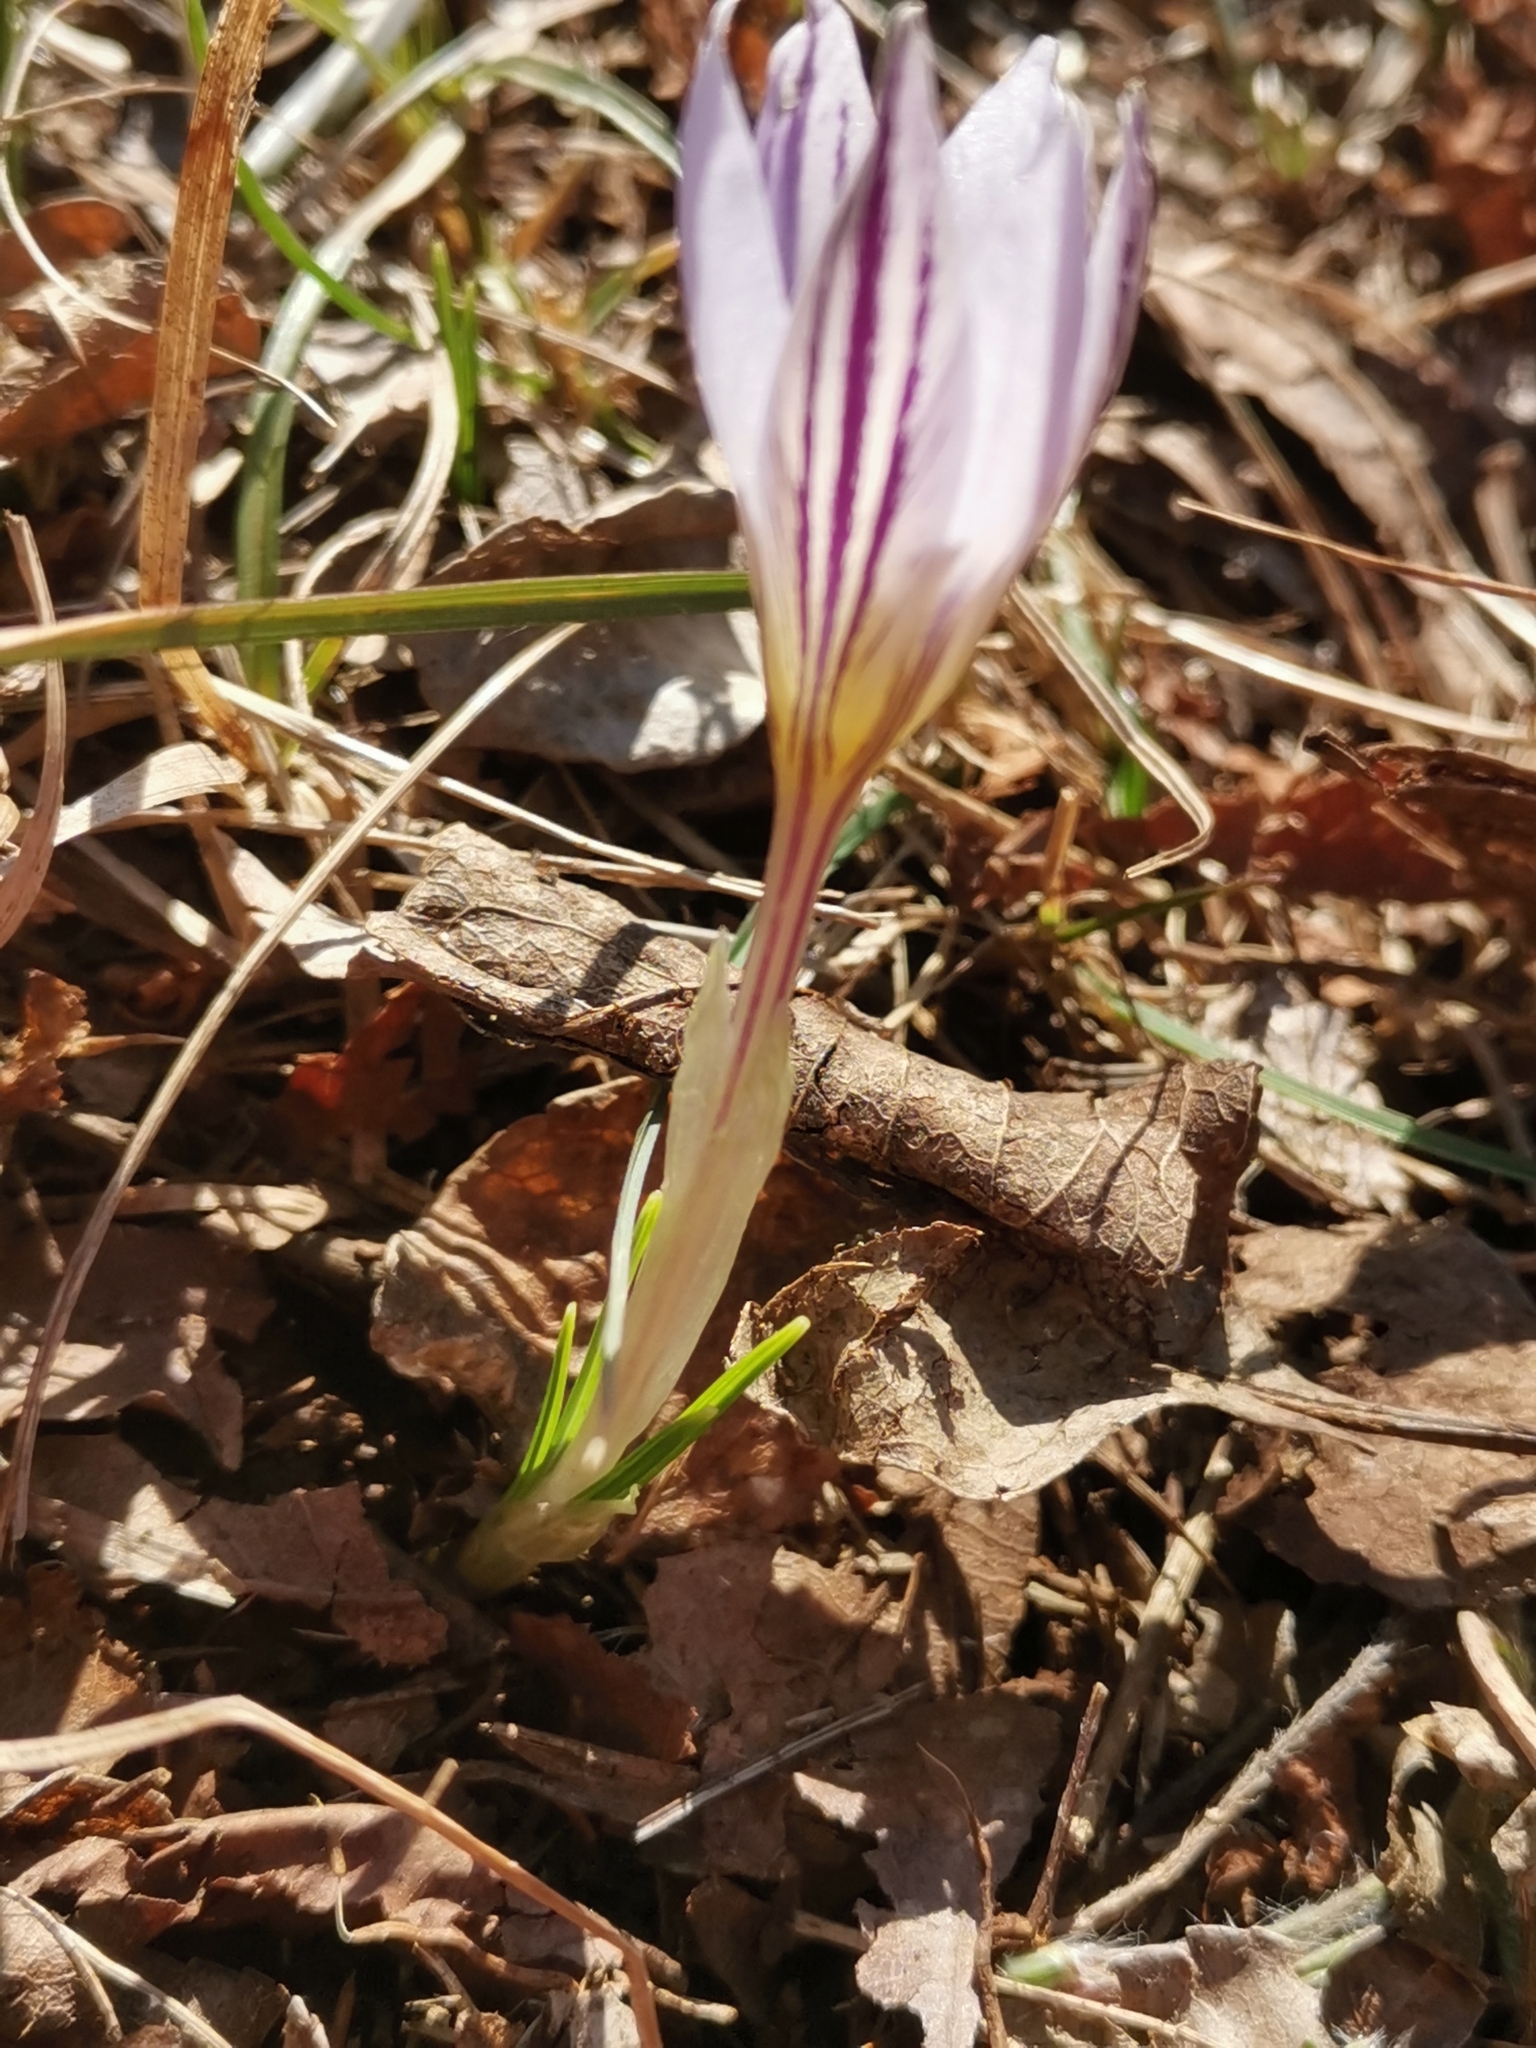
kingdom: Plantae
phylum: Tracheophyta
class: Liliopsida
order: Asparagales
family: Iridaceae
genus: Crocus
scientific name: Crocus variegatus
